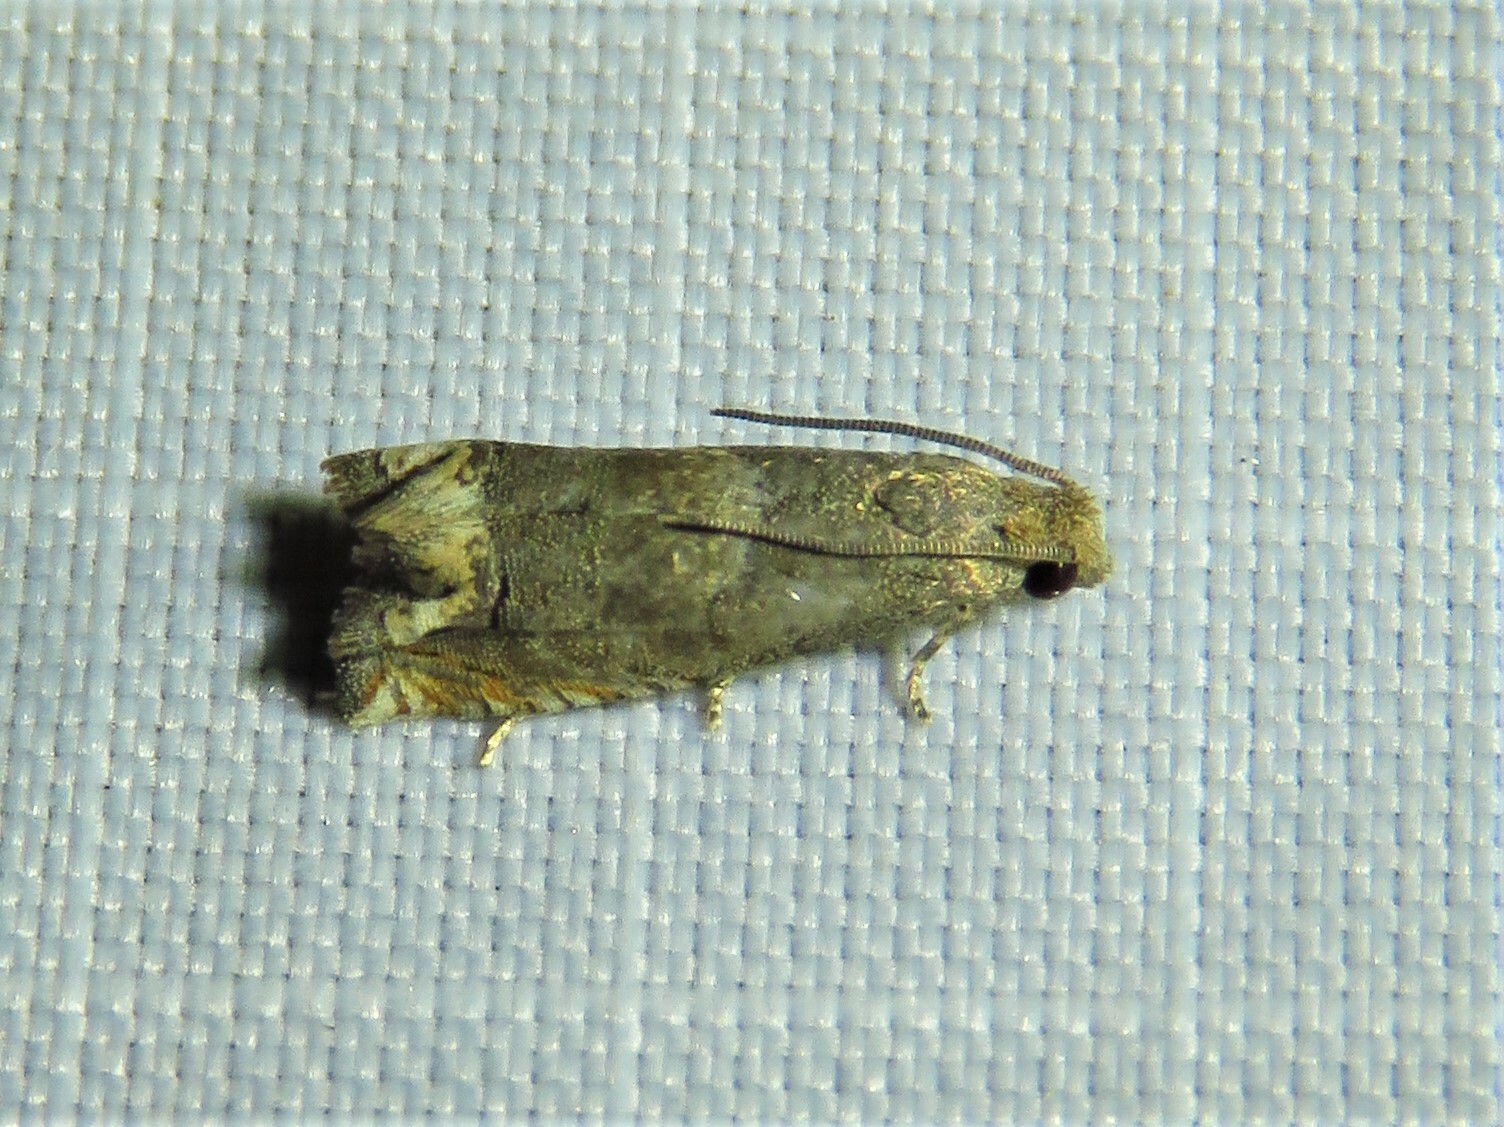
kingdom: Animalia
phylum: Arthropoda
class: Insecta
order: Lepidoptera
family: Tortricidae
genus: Epiblema
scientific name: Epiblema strenuana
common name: Ragweed borer moth
